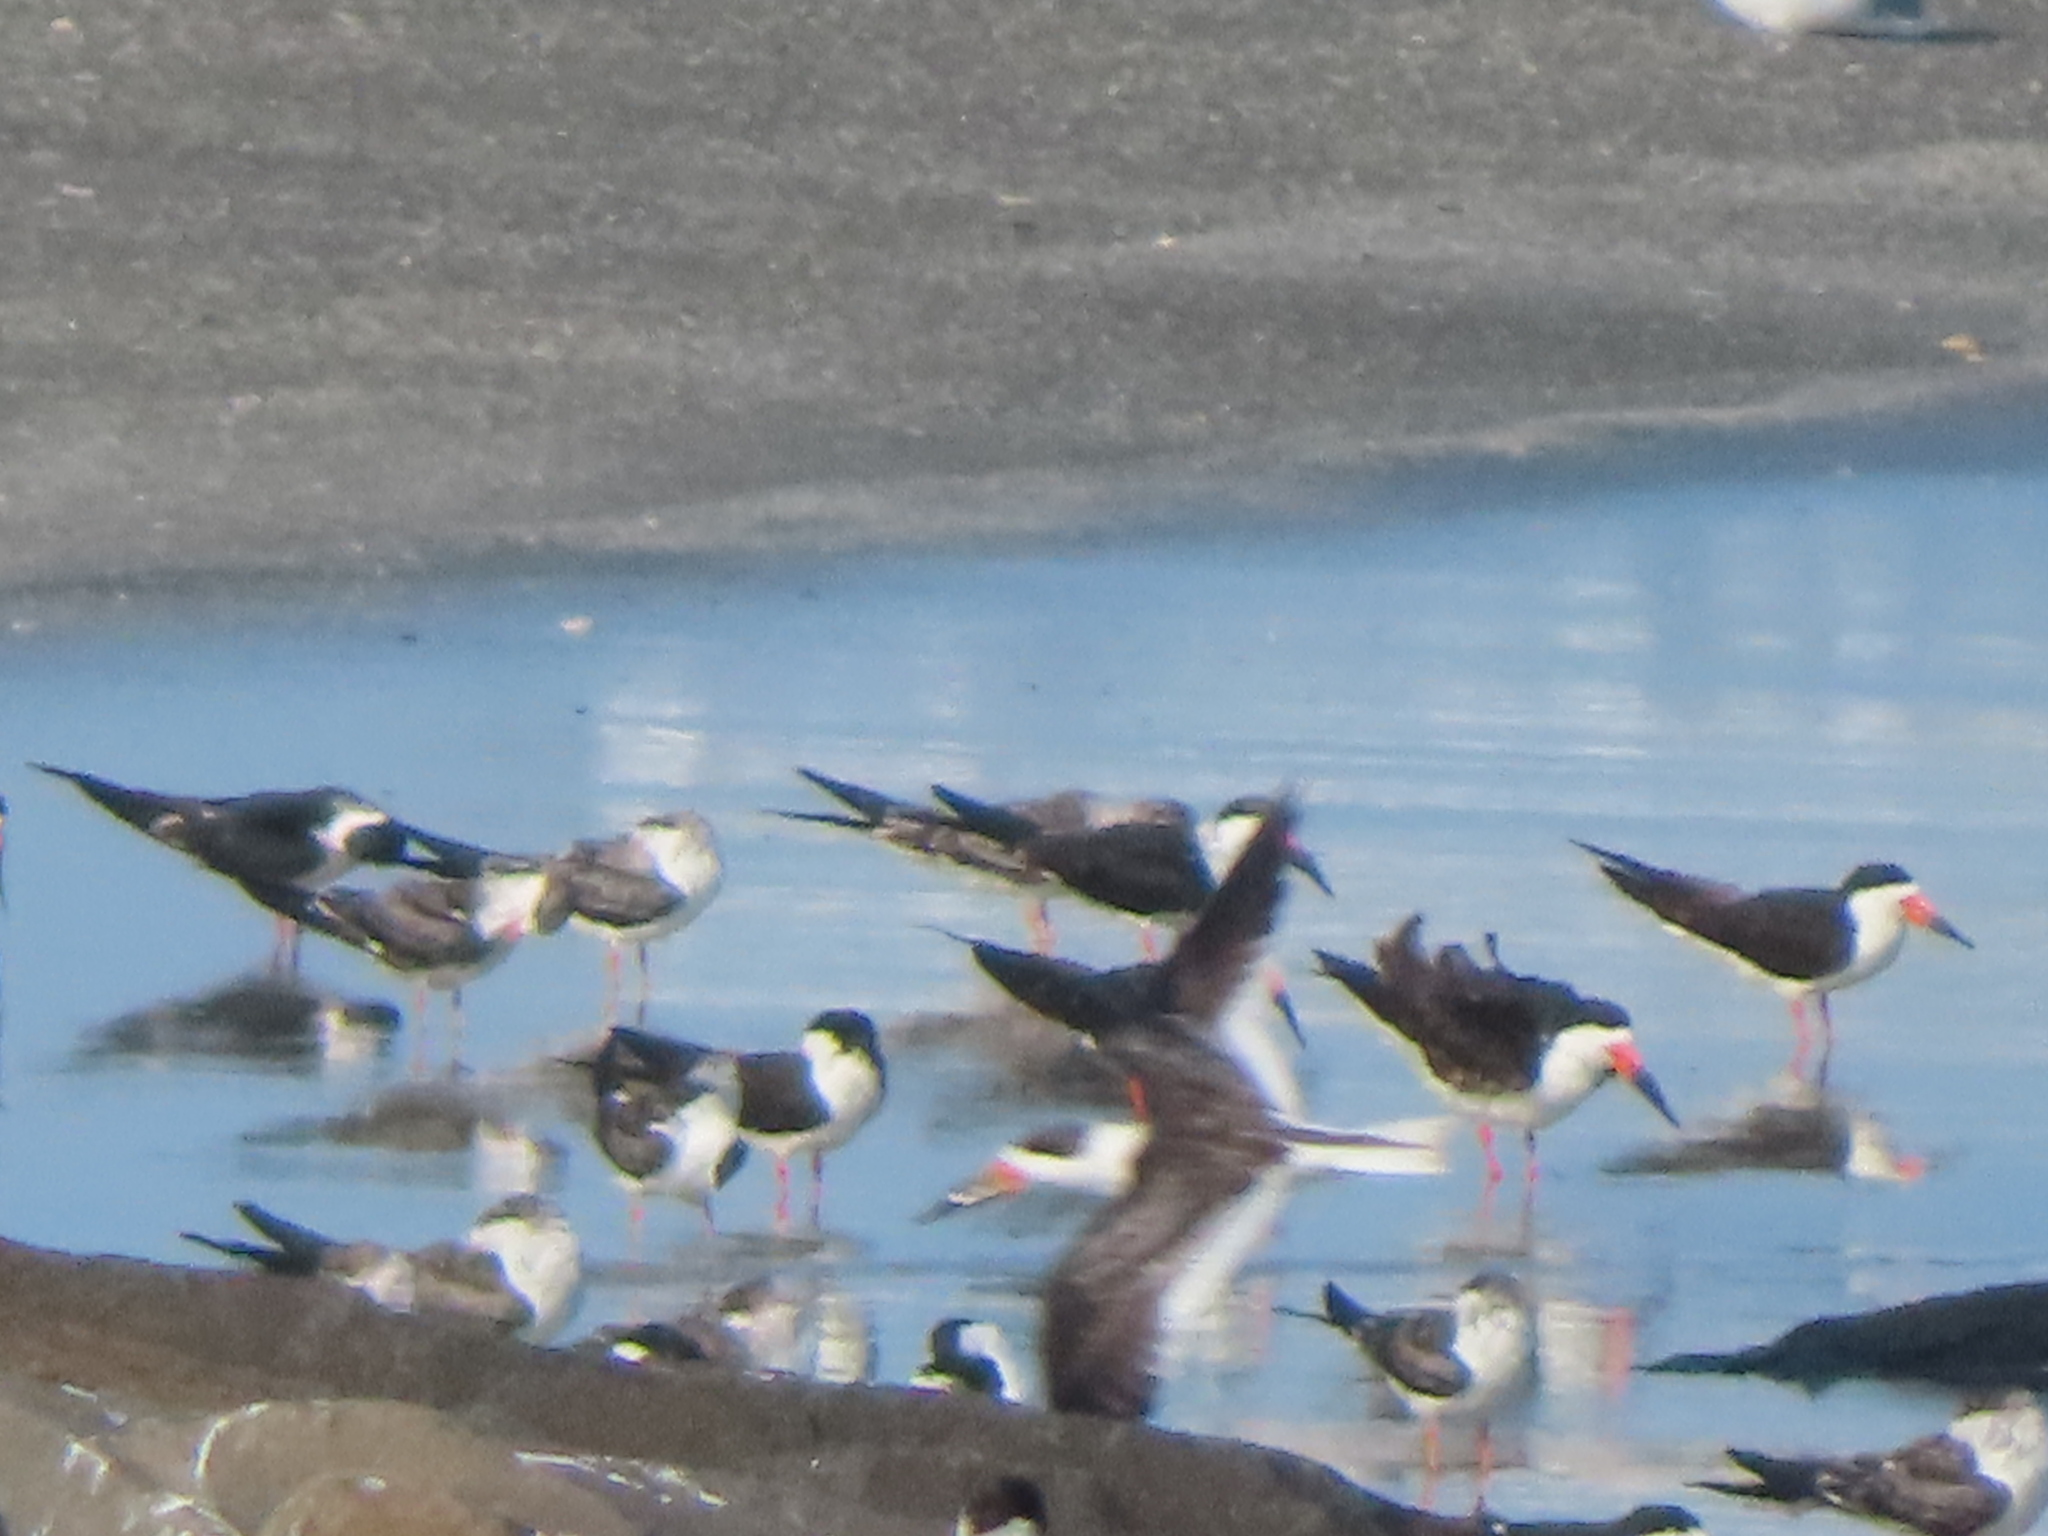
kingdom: Animalia
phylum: Chordata
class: Aves
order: Charadriiformes
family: Laridae
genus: Rynchops
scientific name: Rynchops niger
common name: Black skimmer
